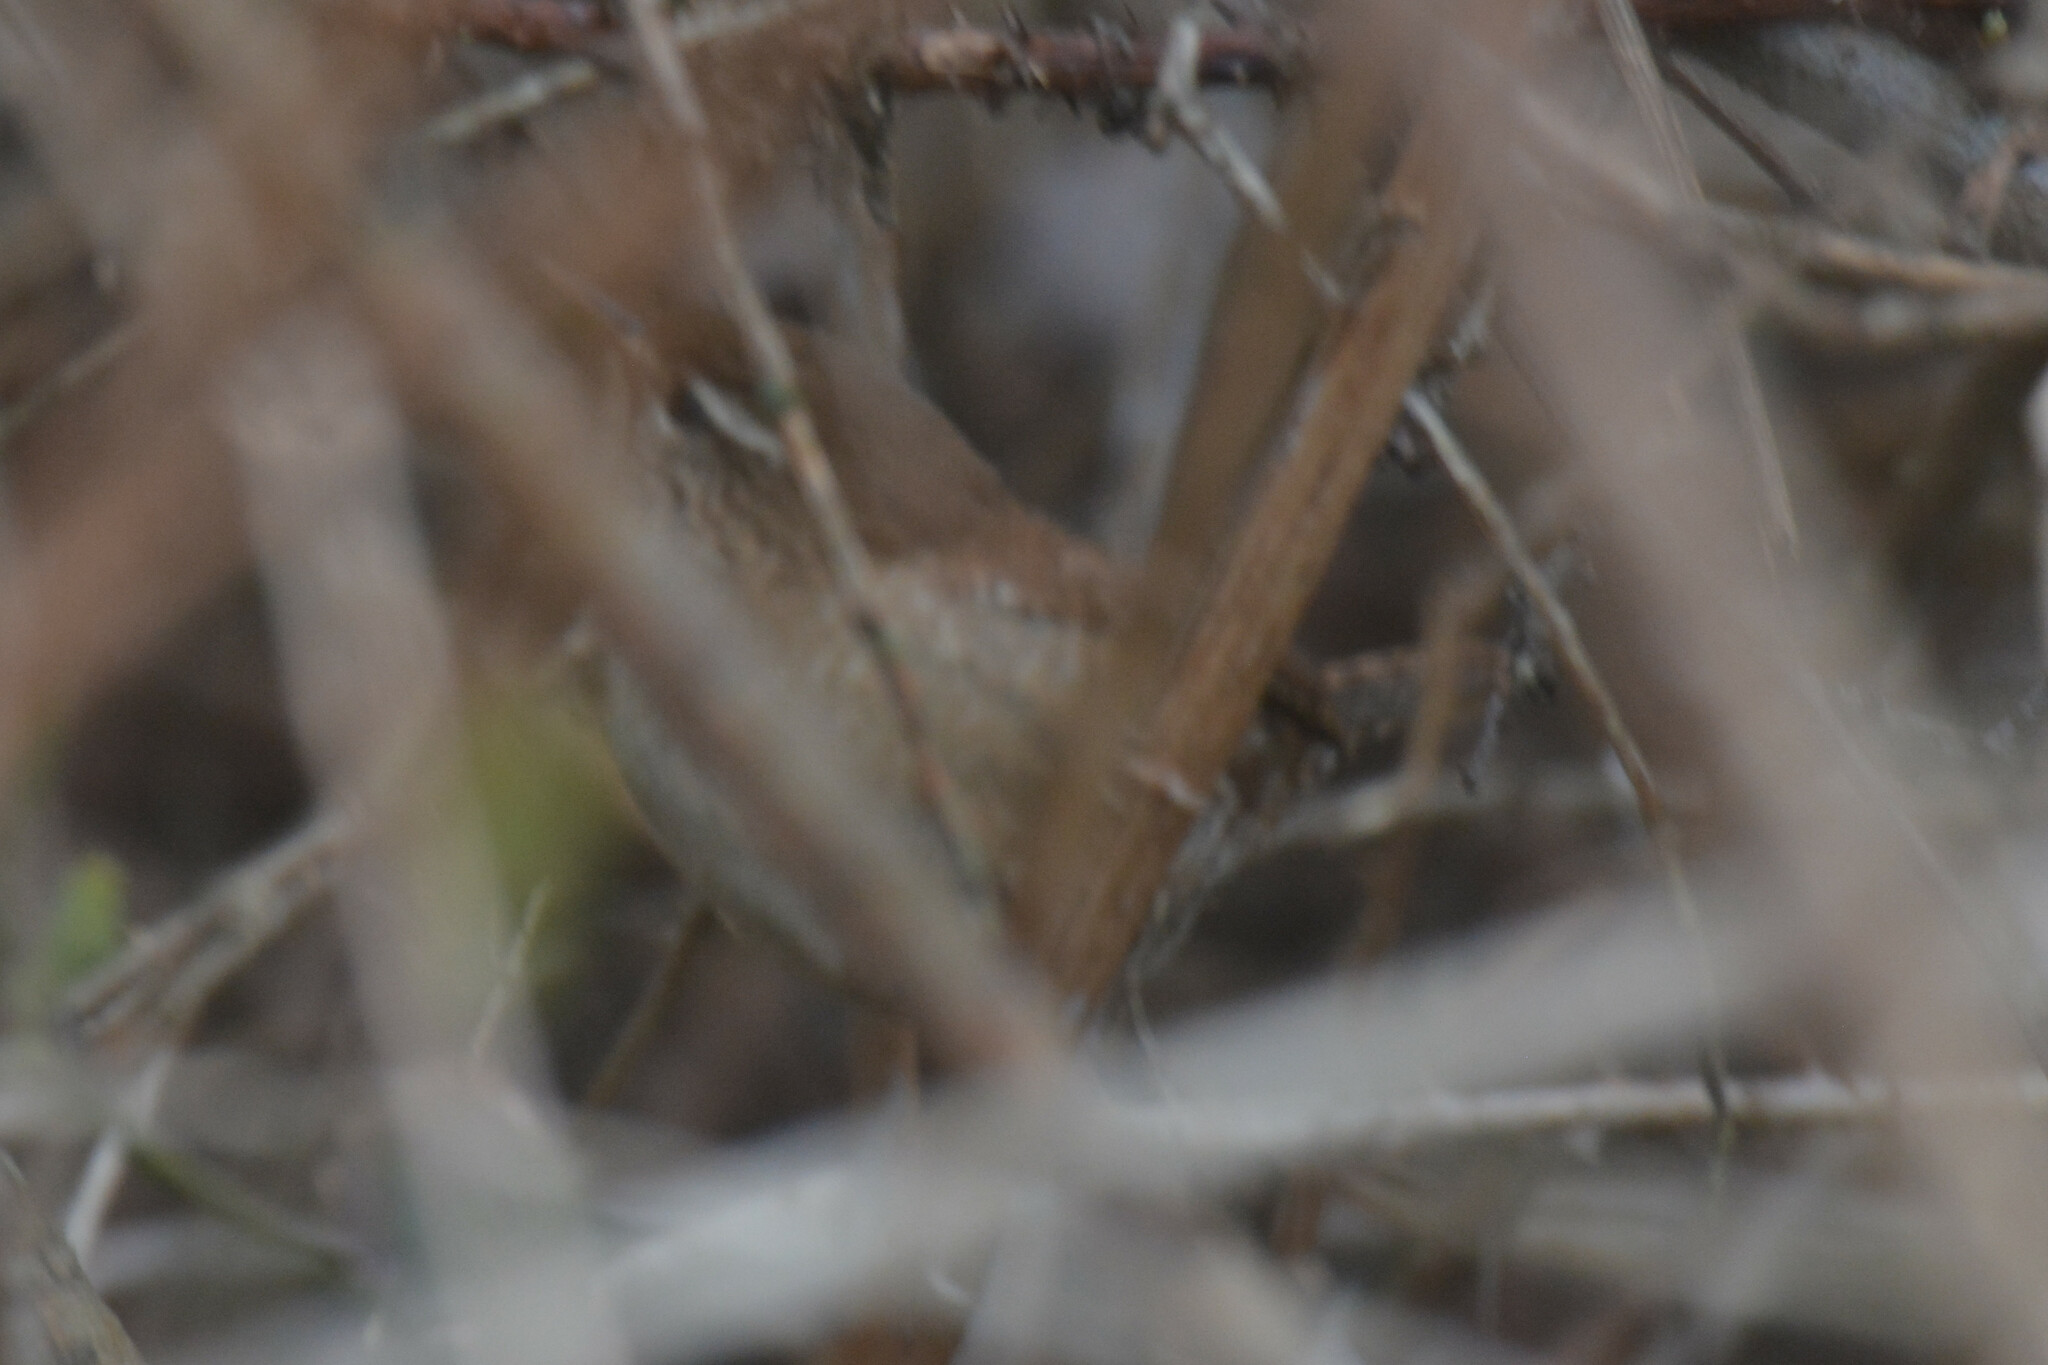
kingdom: Animalia
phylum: Chordata
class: Aves
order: Passeriformes
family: Troglodytidae
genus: Troglodytes
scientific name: Troglodytes troglodytes
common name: Eurasian wren
